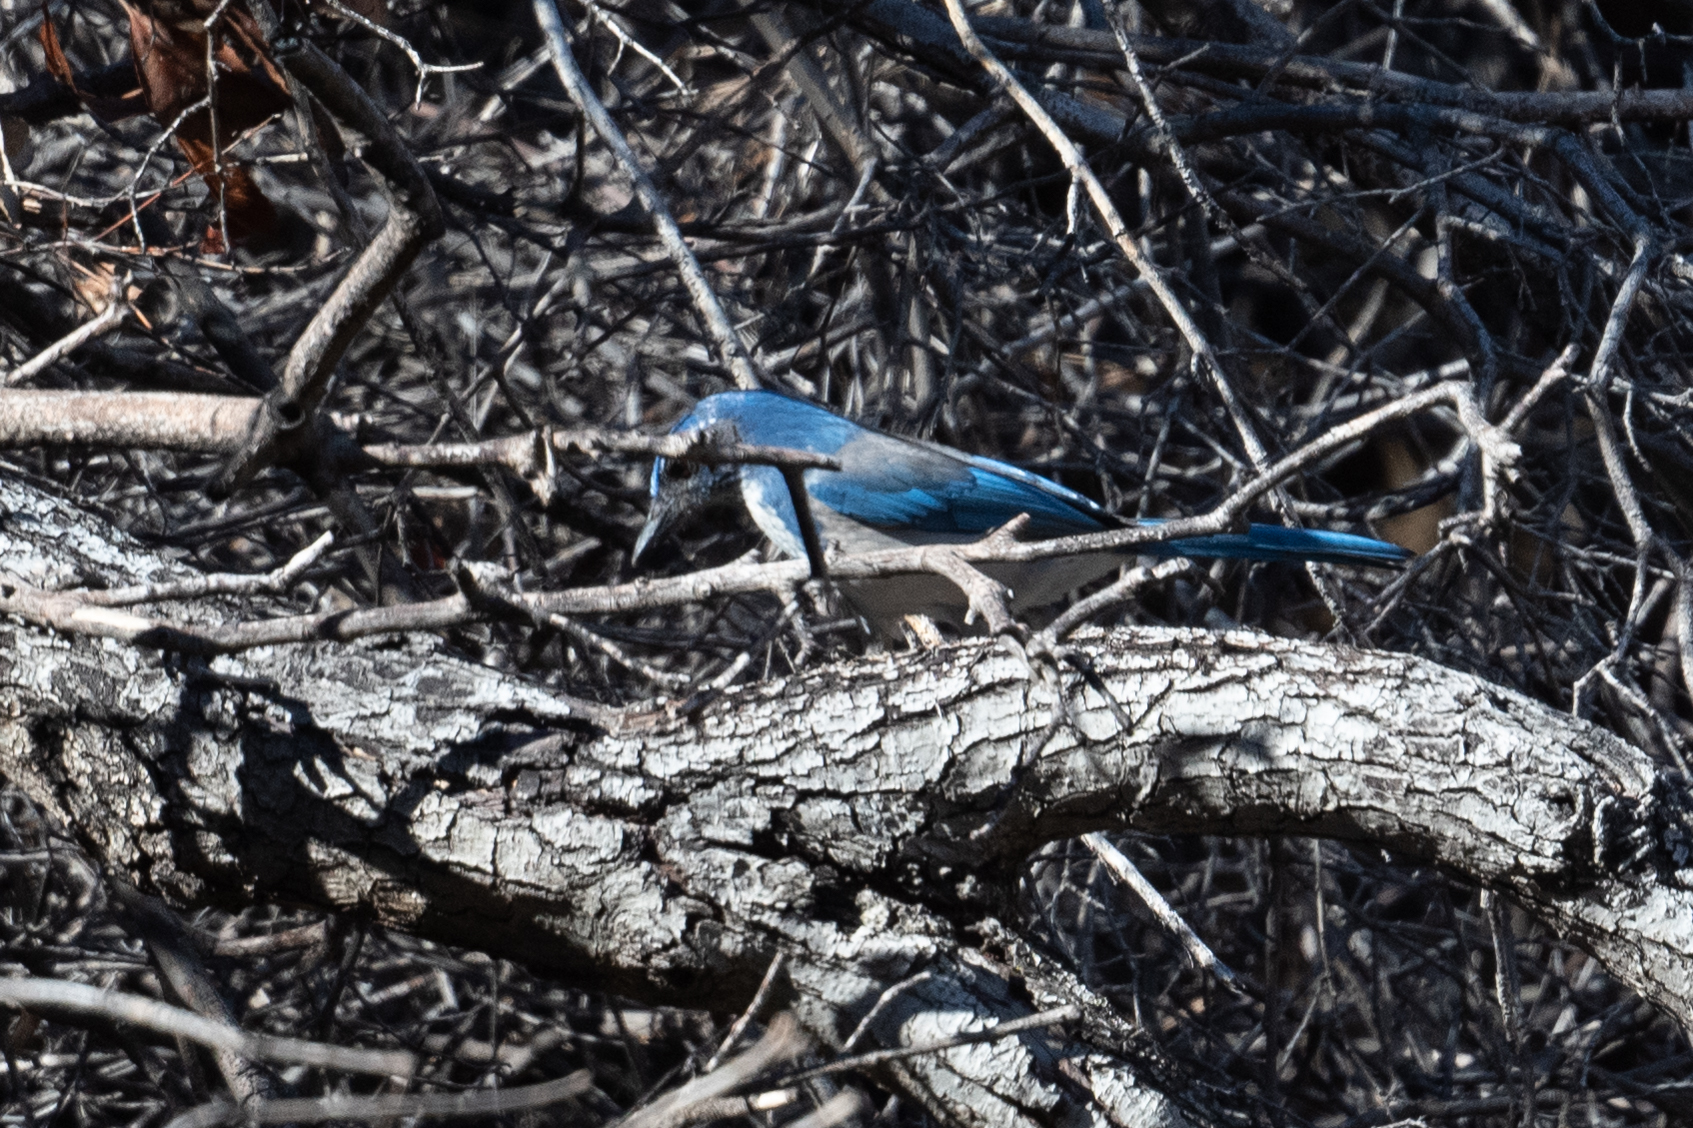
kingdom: Animalia
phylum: Chordata
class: Aves
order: Passeriformes
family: Corvidae
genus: Aphelocoma
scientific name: Aphelocoma californica
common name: California scrub-jay
